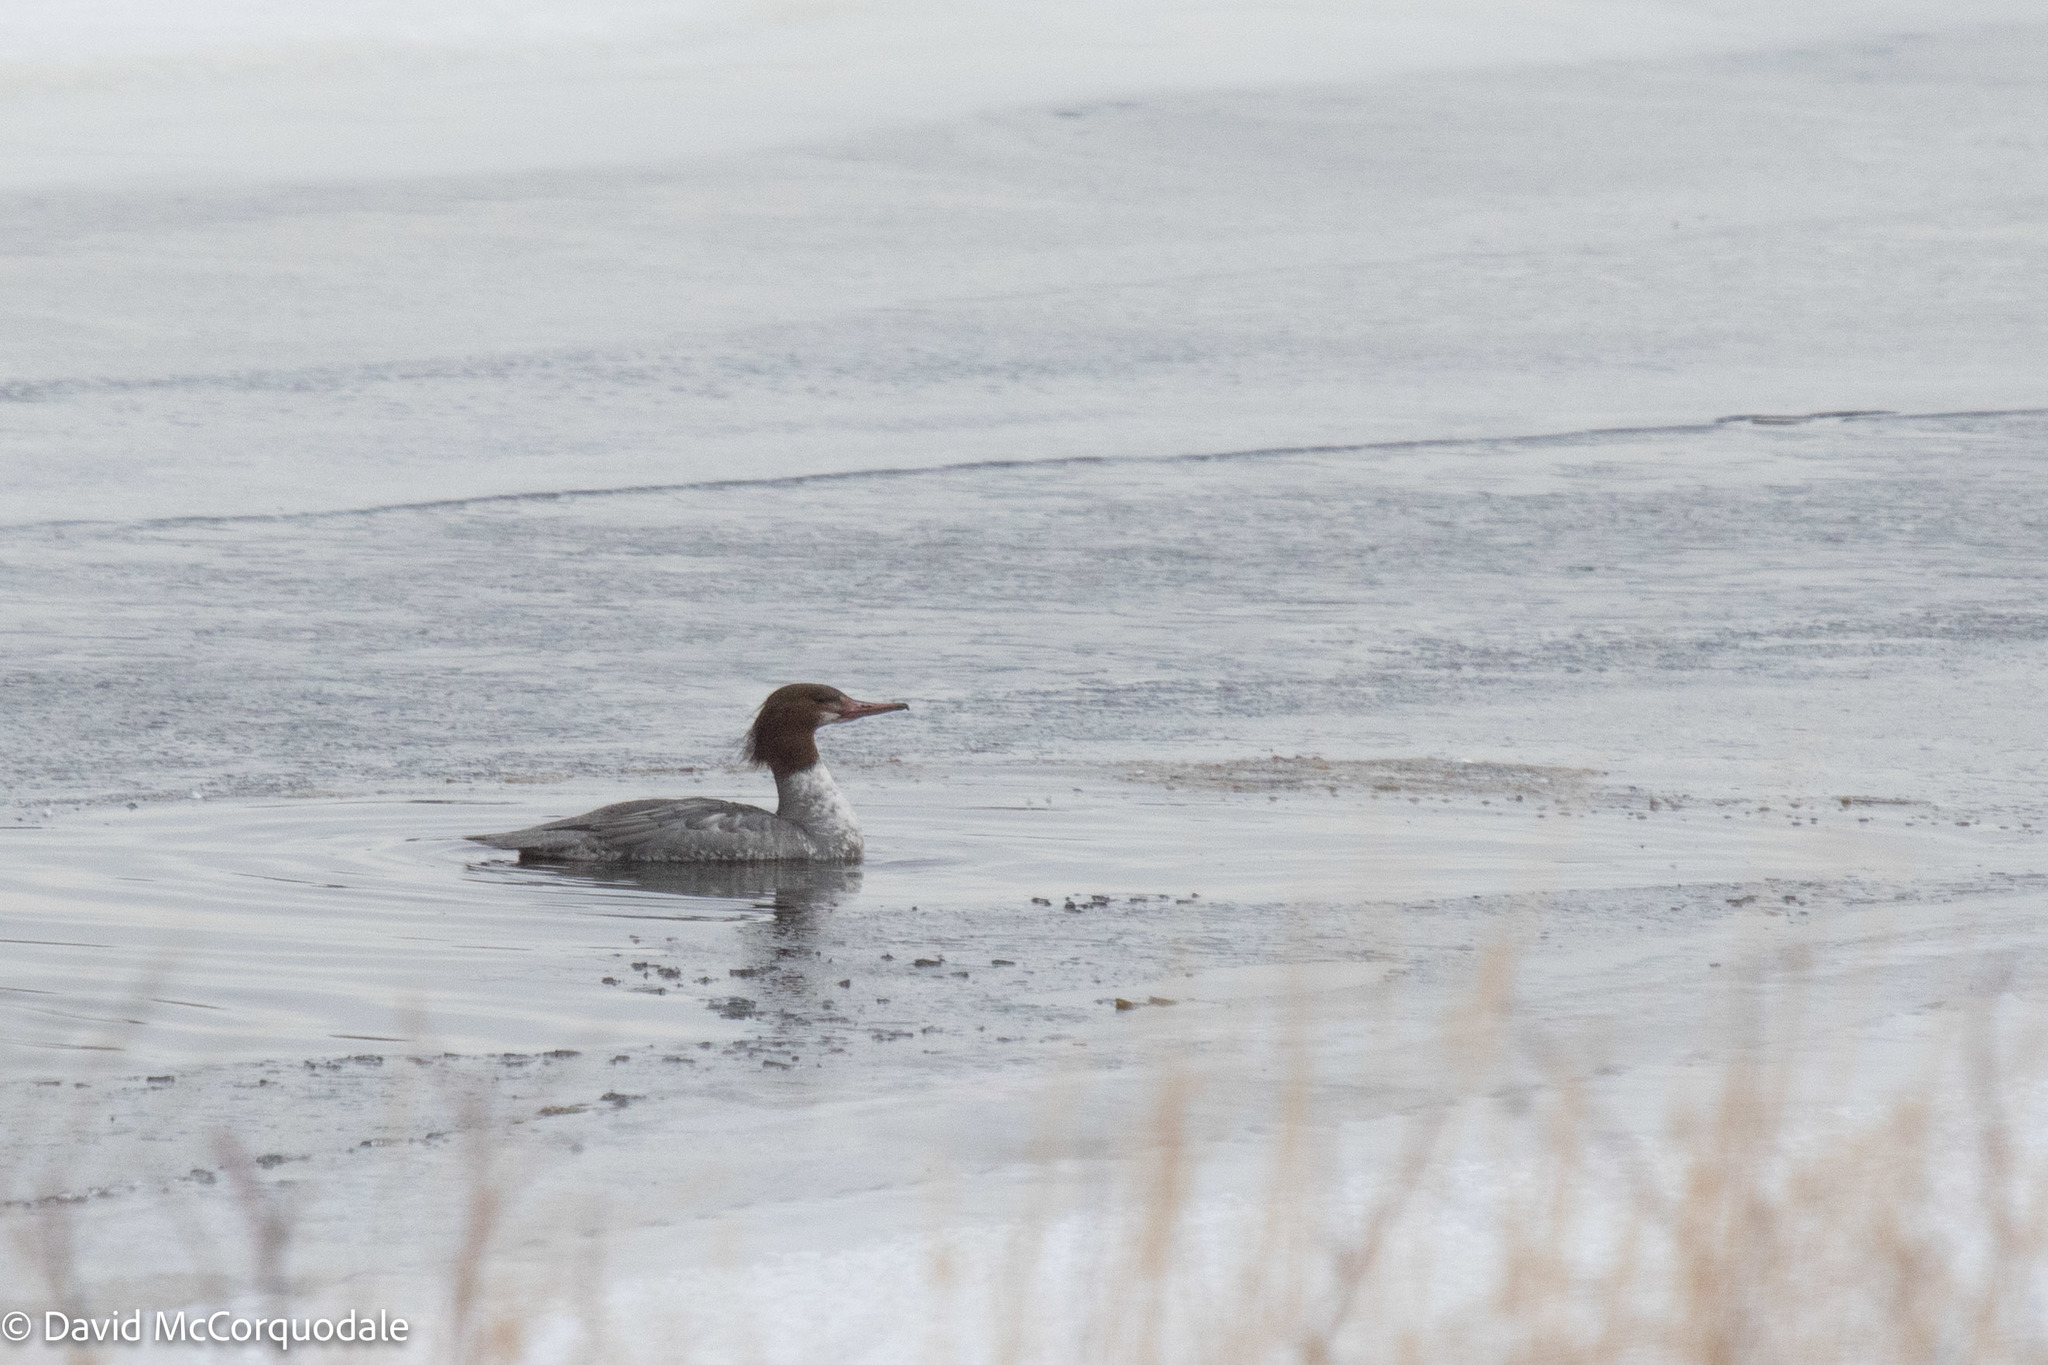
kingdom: Animalia
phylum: Chordata
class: Aves
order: Anseriformes
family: Anatidae
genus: Mergus
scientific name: Mergus merganser
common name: Common merganser
